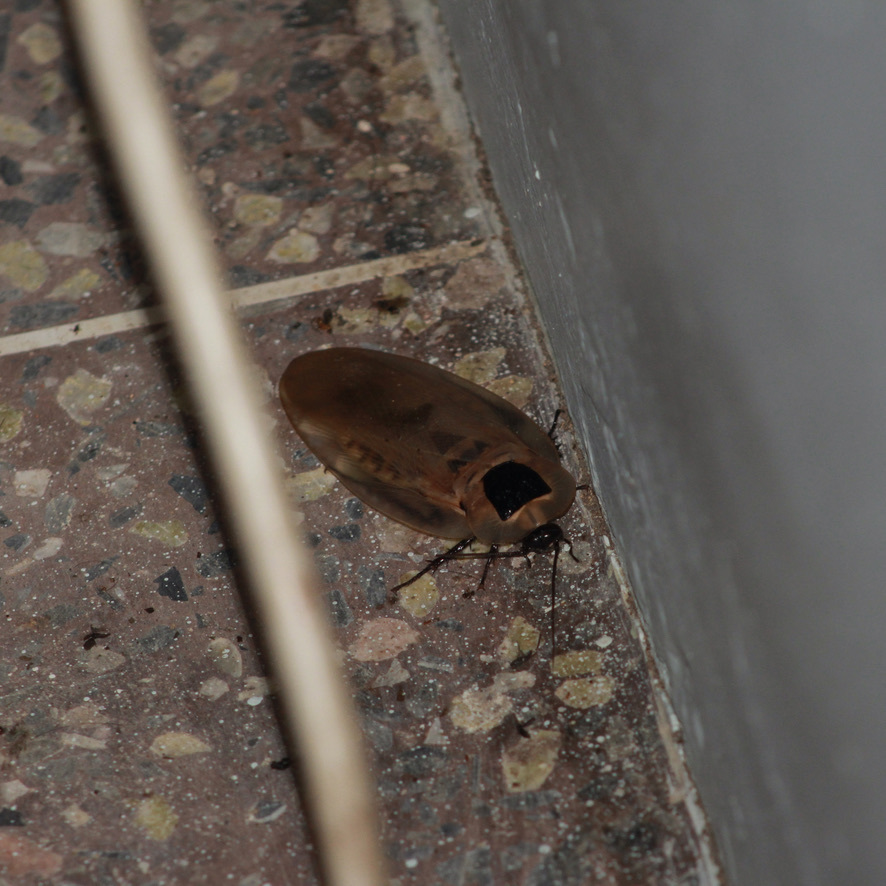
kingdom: Animalia
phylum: Arthropoda
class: Insecta
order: Blattodea
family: Blaberidae
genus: Blaberus
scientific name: Blaberus giganteus
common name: Giant cave cockroach
